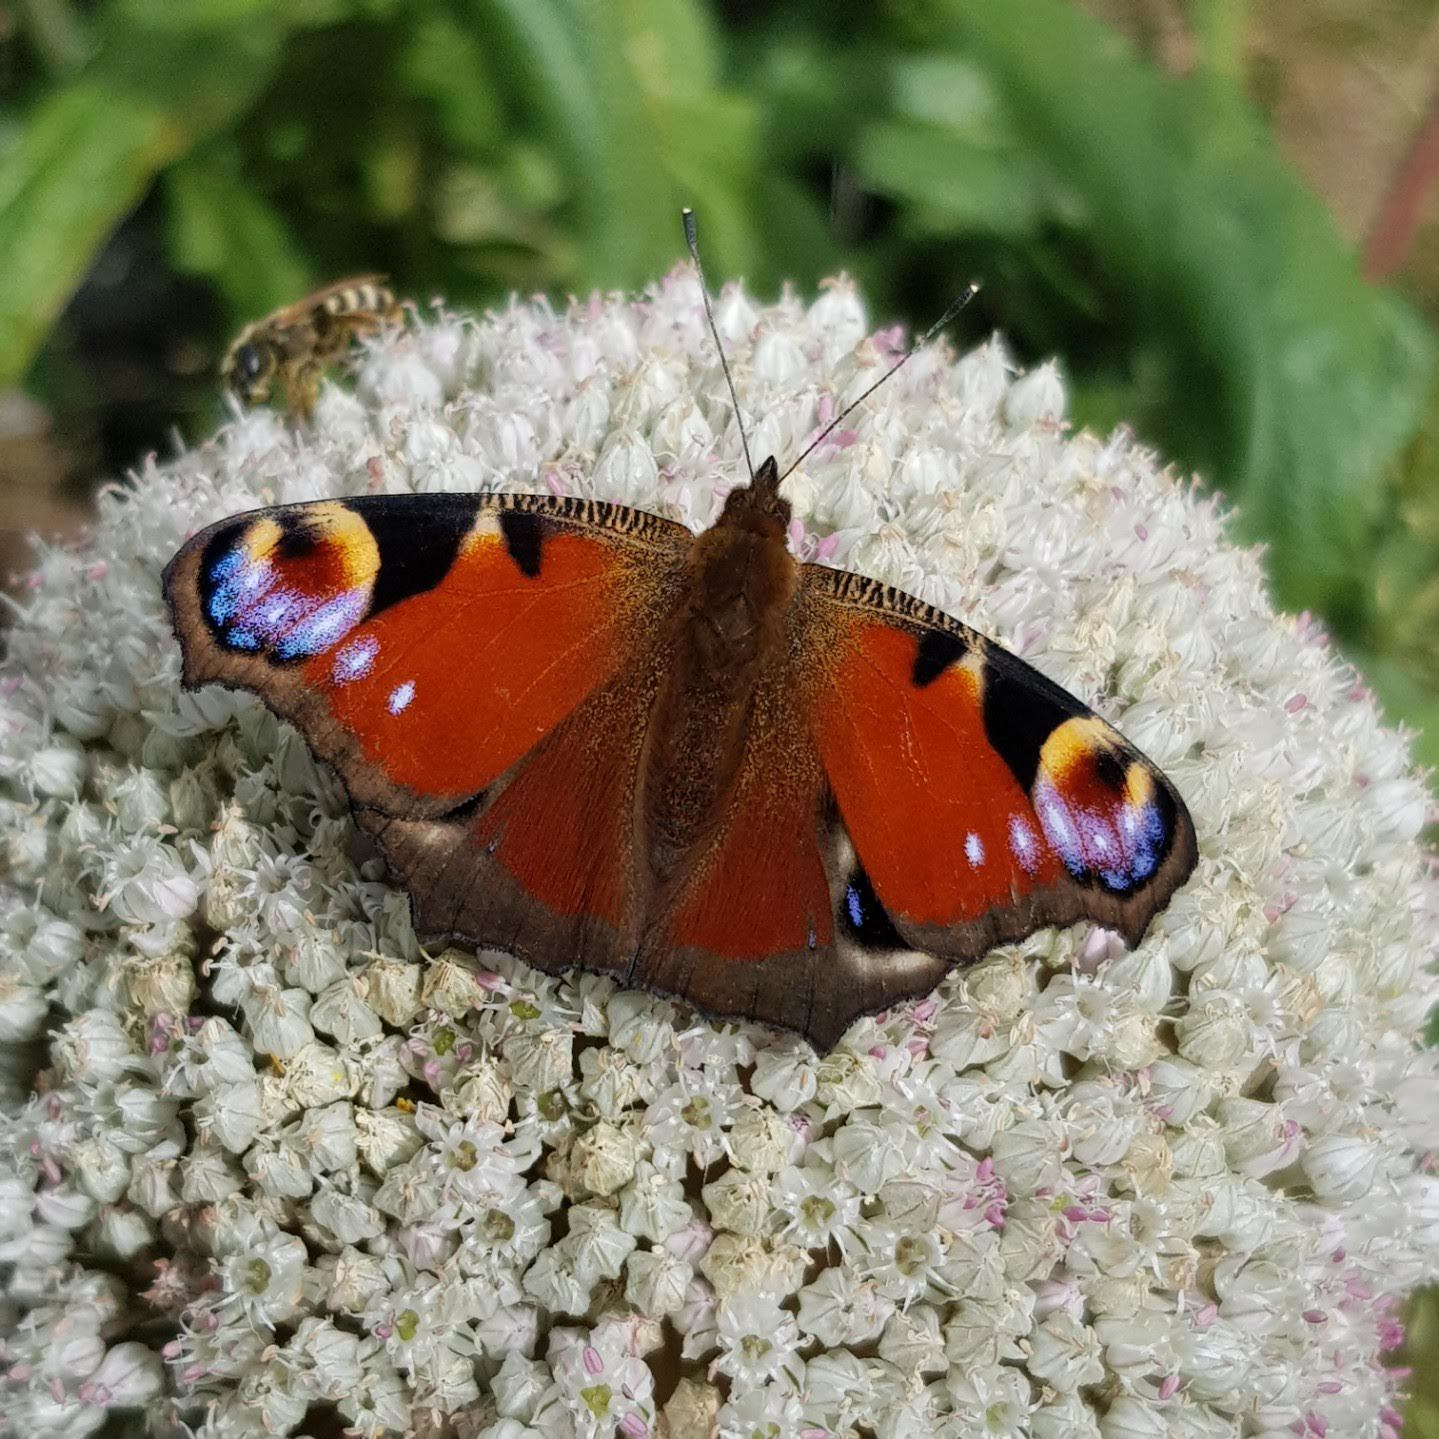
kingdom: Animalia
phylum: Arthropoda
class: Insecta
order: Lepidoptera
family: Nymphalidae
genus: Aglais
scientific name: Aglais io
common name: Peacock
